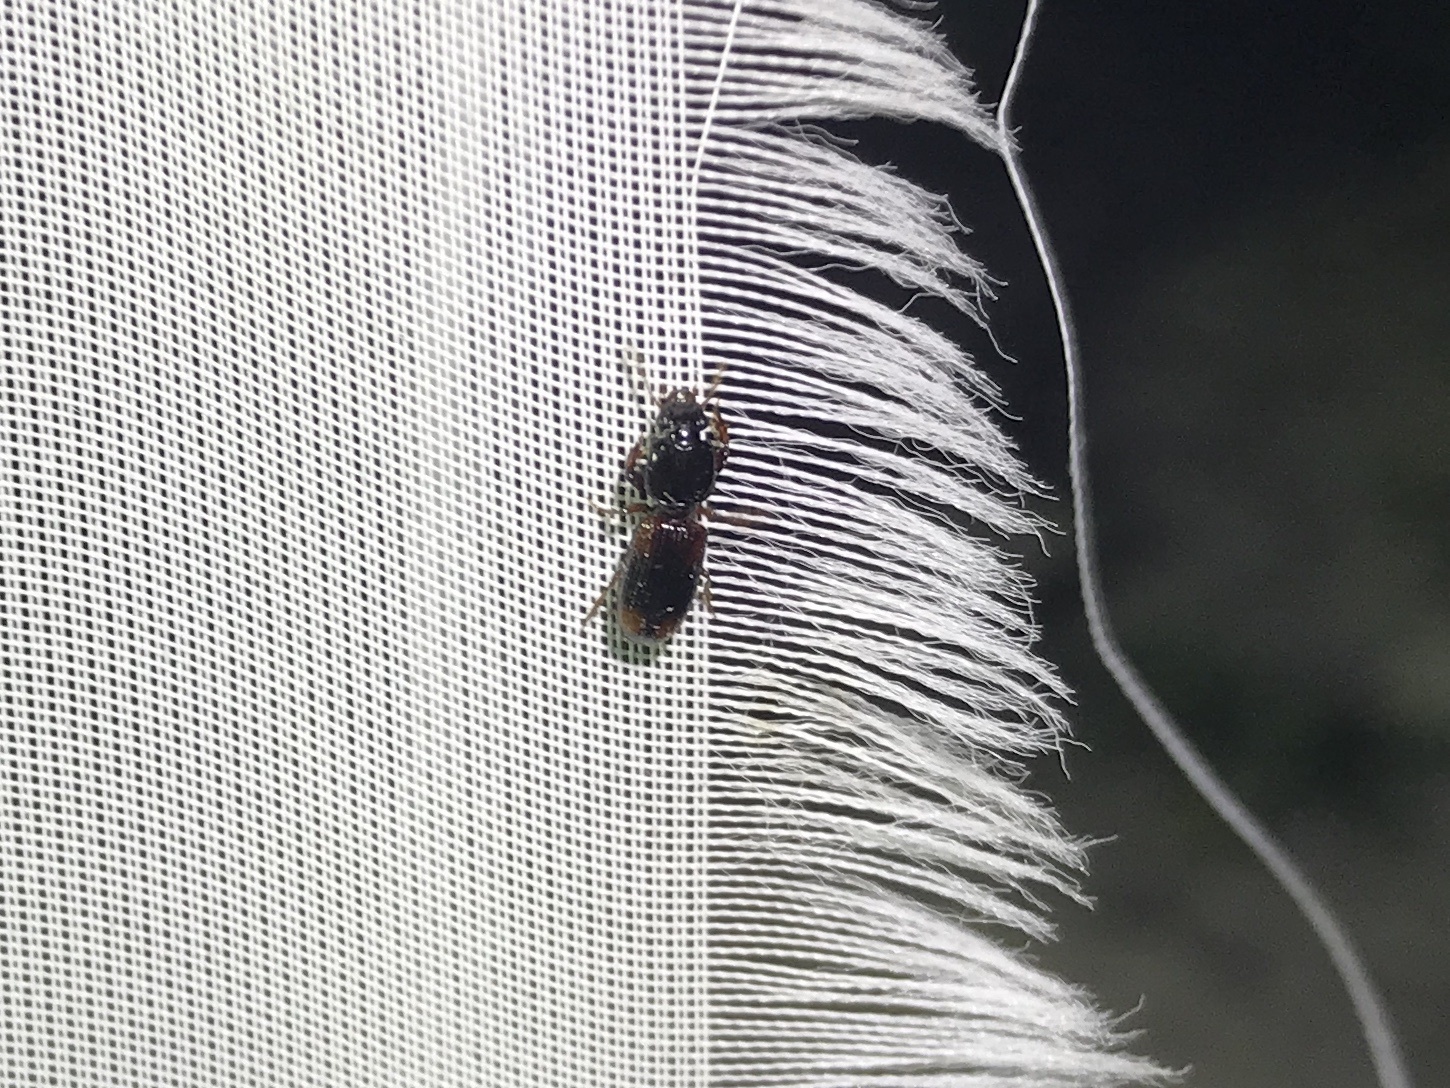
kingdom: Animalia
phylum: Arthropoda
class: Insecta
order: Coleoptera
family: Carabidae
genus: Clivina
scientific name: Clivina bipustulata
